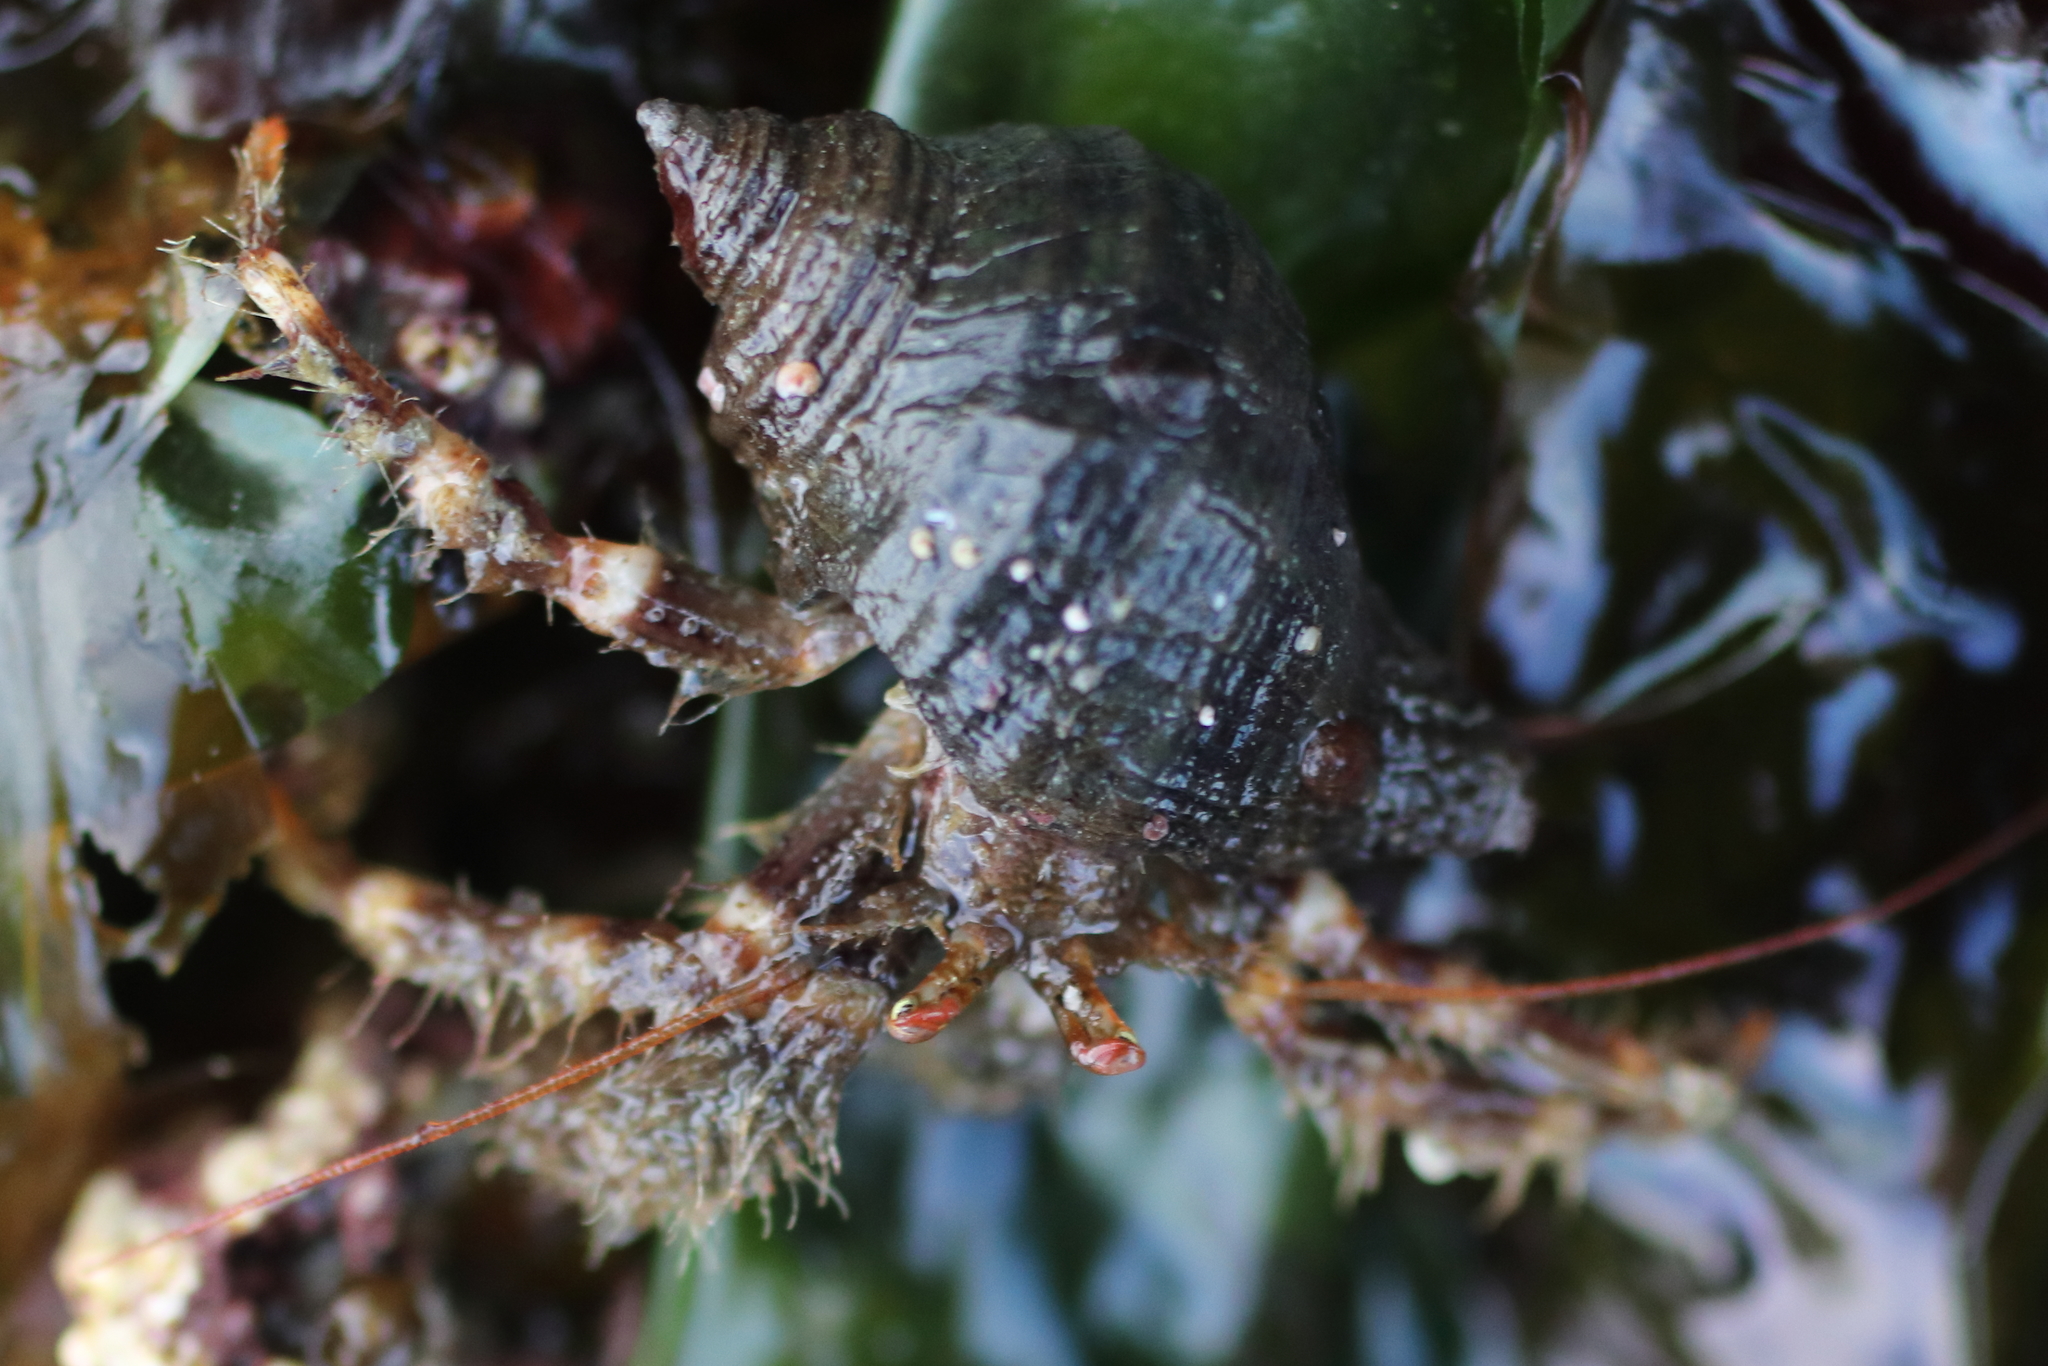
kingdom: Animalia
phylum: Arthropoda
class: Malacostraca
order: Decapoda
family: Paguridae
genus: Pagurus
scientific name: Pagurus caurinus
